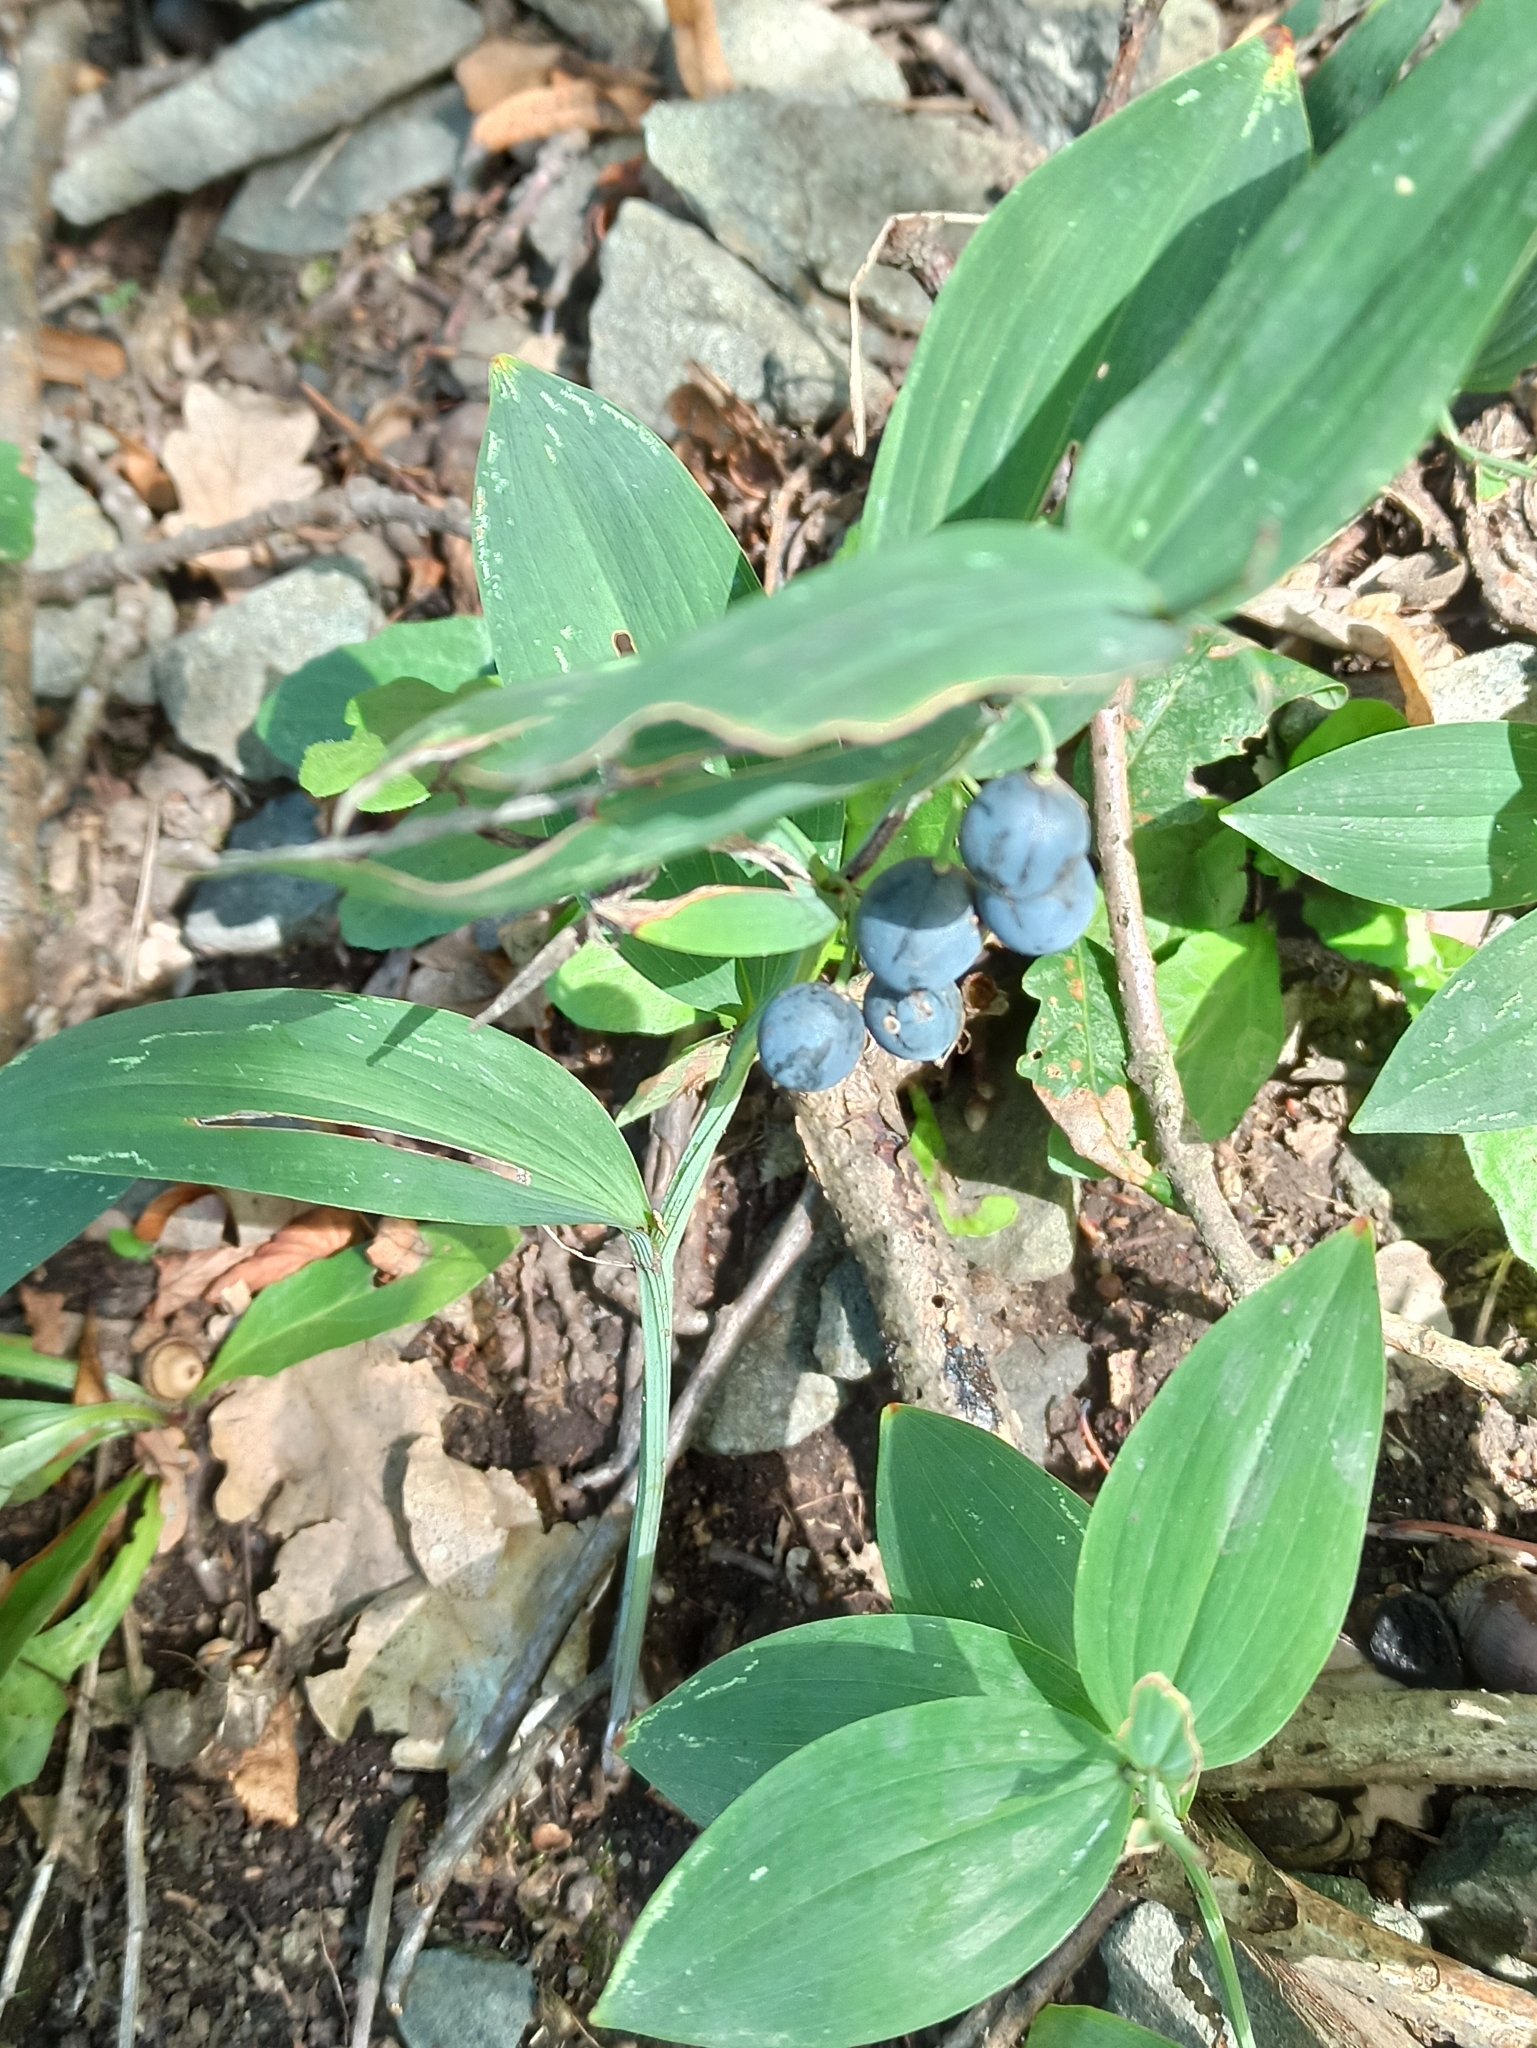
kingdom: Plantae
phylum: Tracheophyta
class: Liliopsida
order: Asparagales
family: Asparagaceae
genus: Polygonatum
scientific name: Polygonatum odoratum
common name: Angular solomon's-seal
